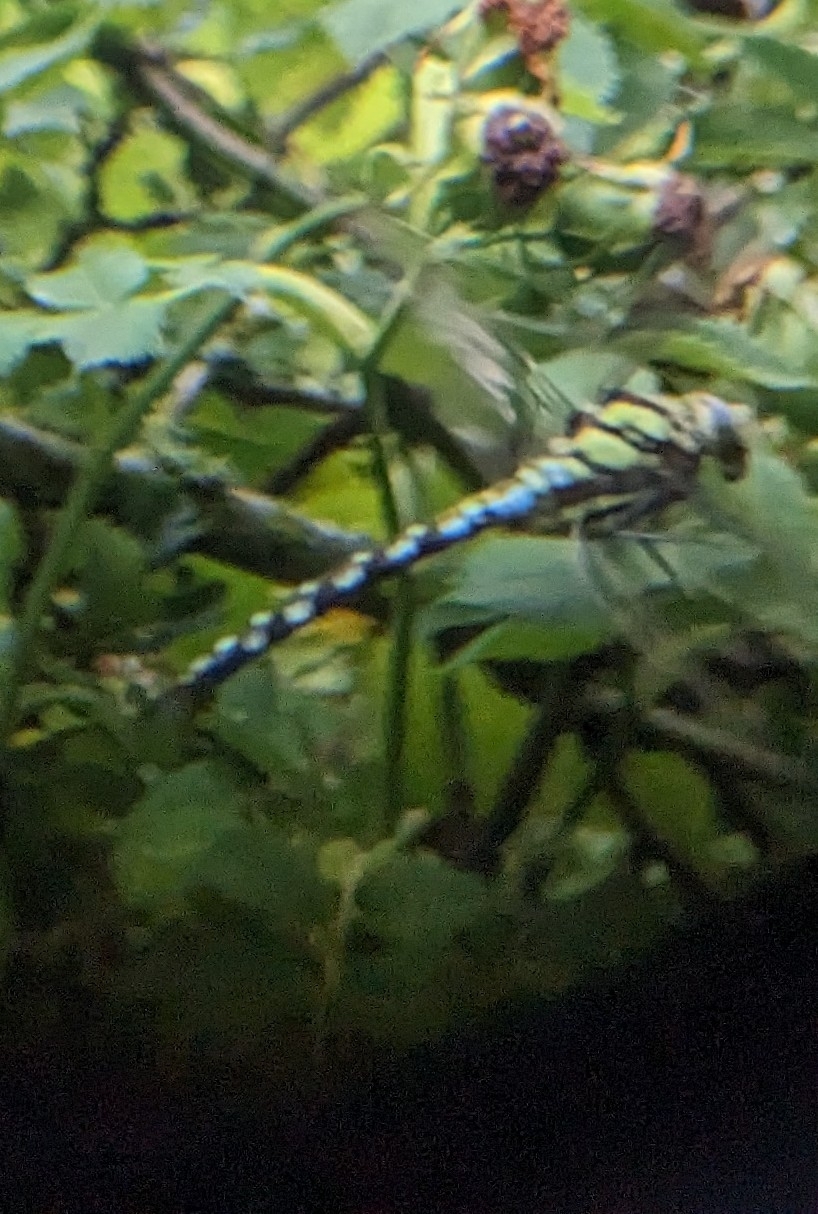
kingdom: Animalia
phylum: Arthropoda
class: Insecta
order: Odonata
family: Aeshnidae
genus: Aeshna
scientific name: Aeshna cyanea
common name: Southern hawker
